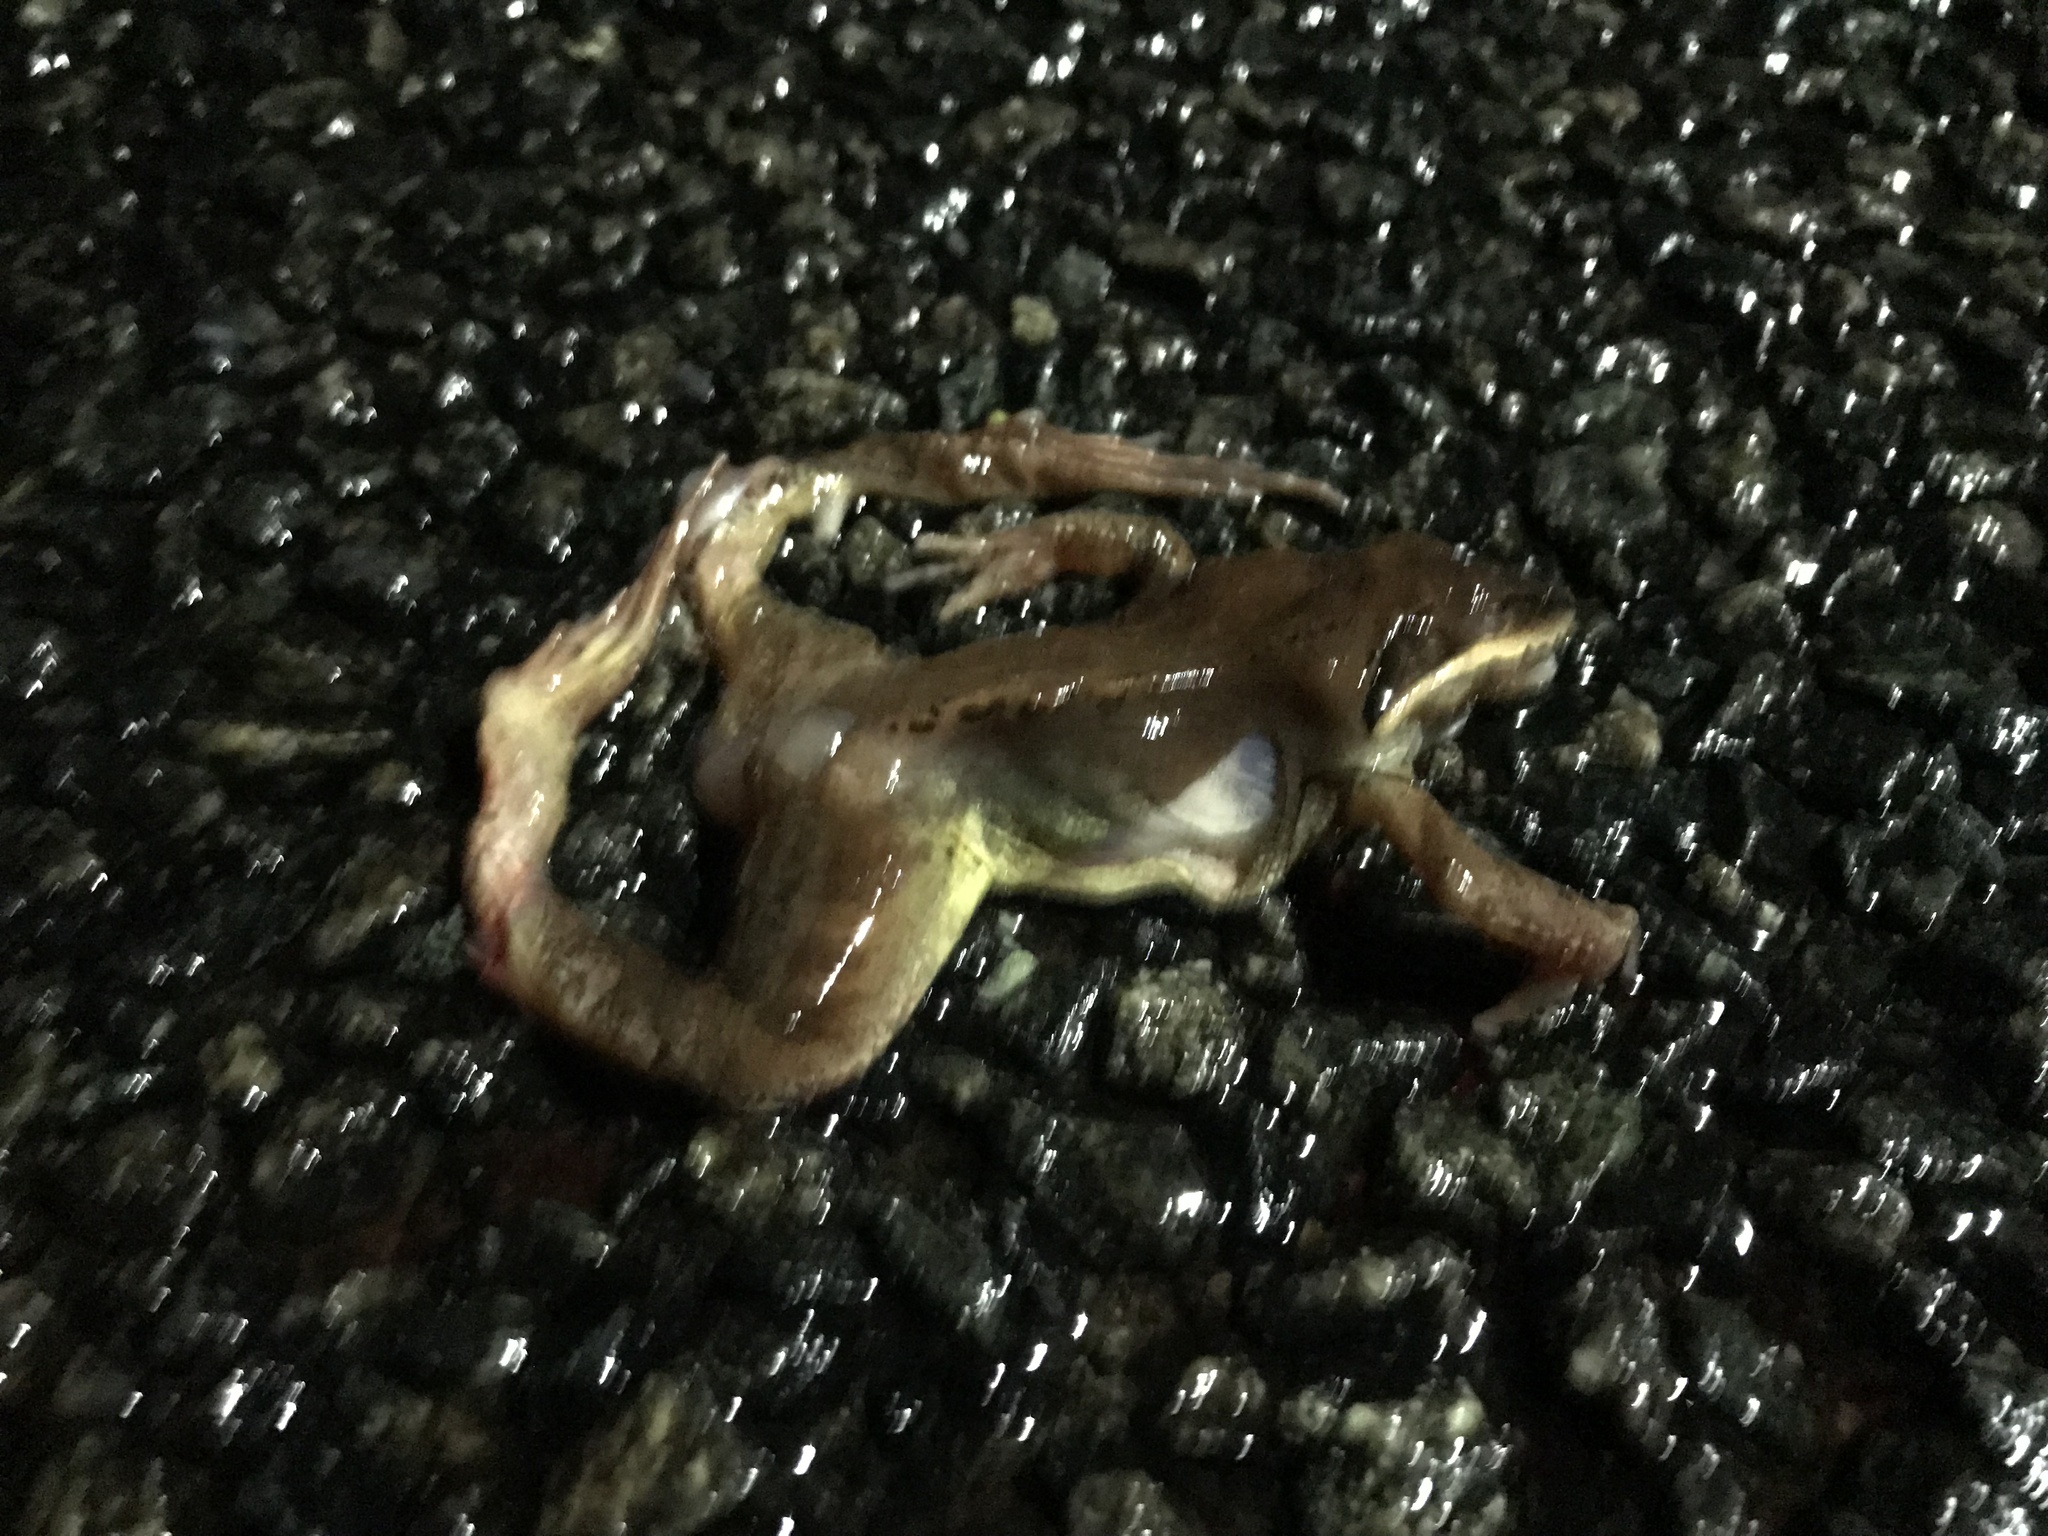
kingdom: Animalia
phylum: Chordata
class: Amphibia
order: Anura
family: Ranidae
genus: Lithobates
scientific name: Lithobates sylvaticus
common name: Wood frog
